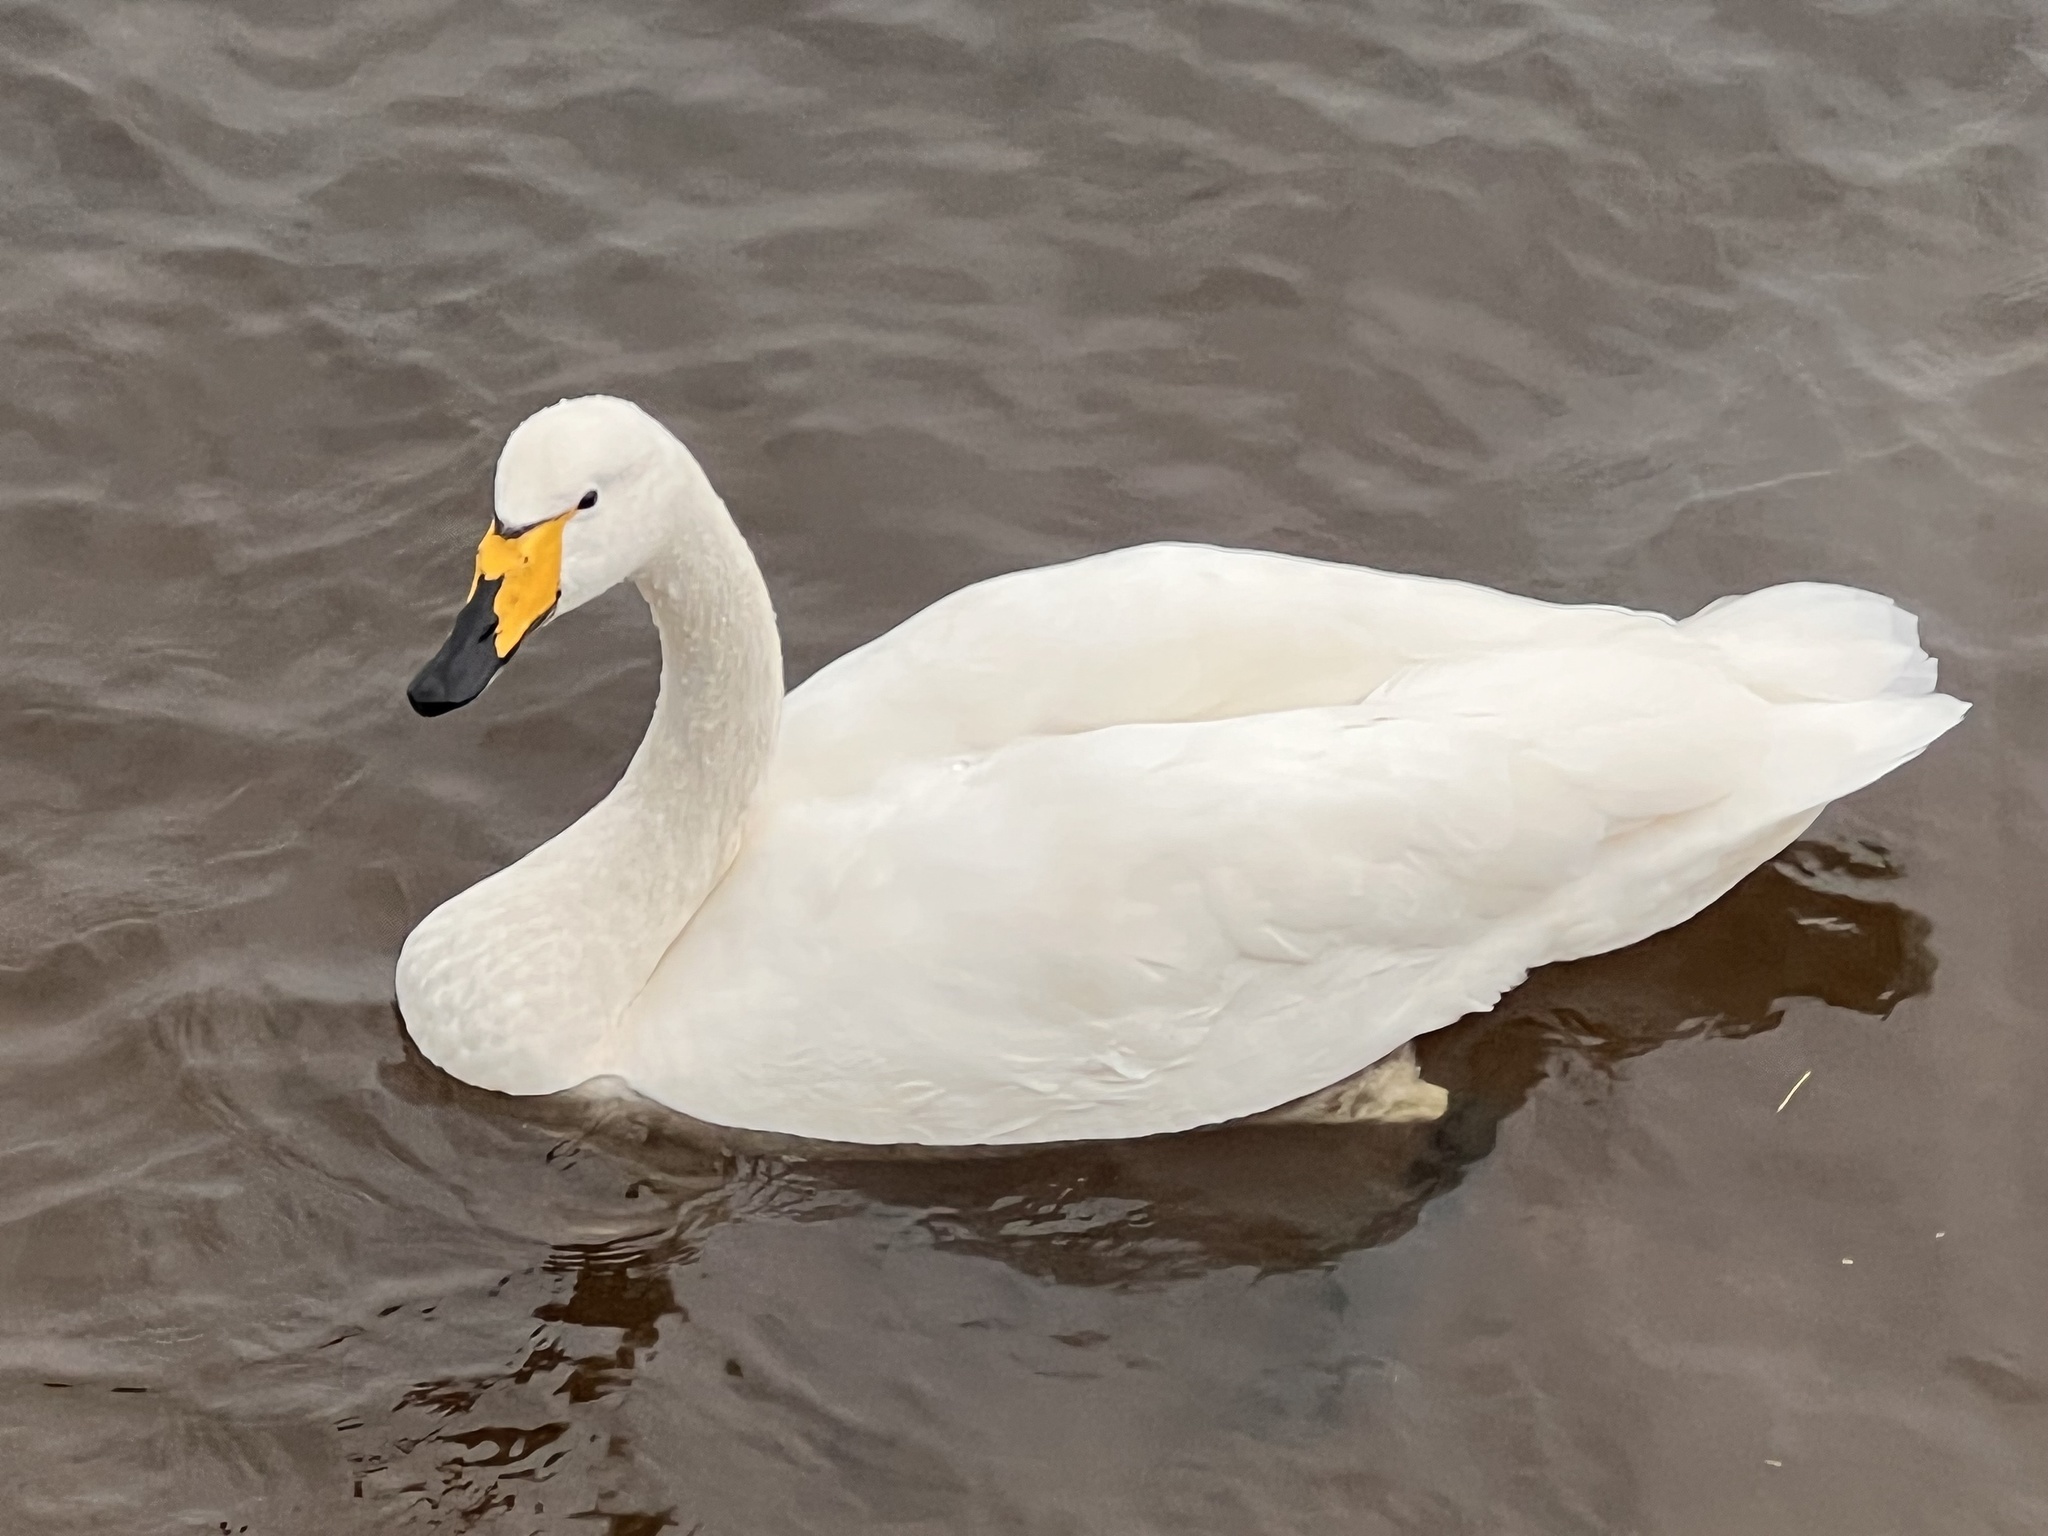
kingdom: Animalia
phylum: Chordata
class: Aves
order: Anseriformes
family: Anatidae
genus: Cygnus
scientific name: Cygnus cygnus
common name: Whooper swan
